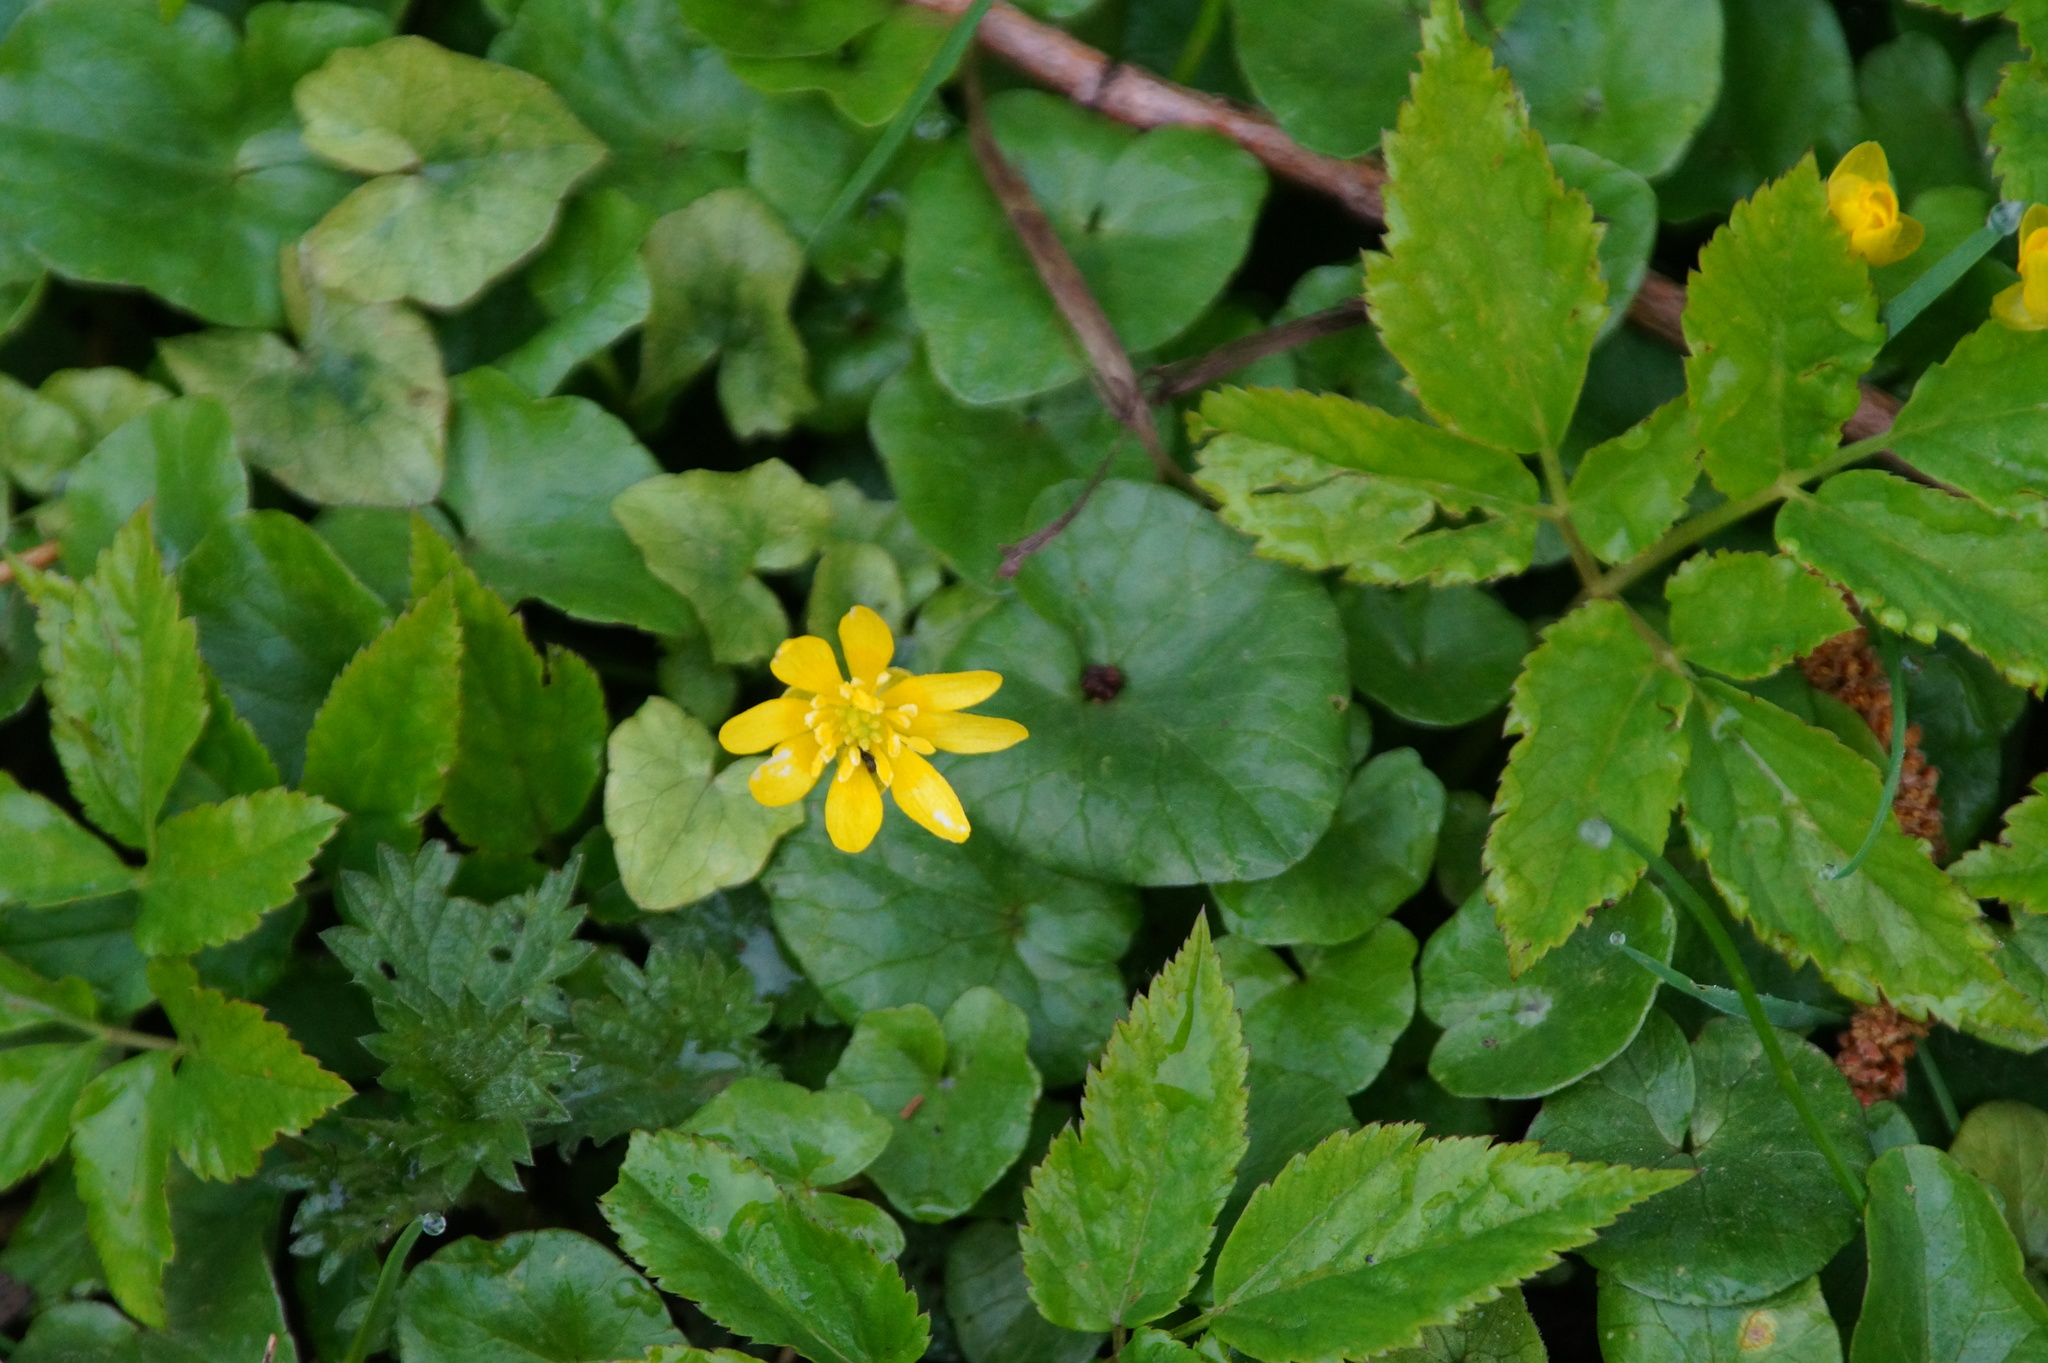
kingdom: Plantae
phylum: Tracheophyta
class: Magnoliopsida
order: Ranunculales
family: Ranunculaceae
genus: Ficaria
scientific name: Ficaria verna
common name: Lesser celandine
